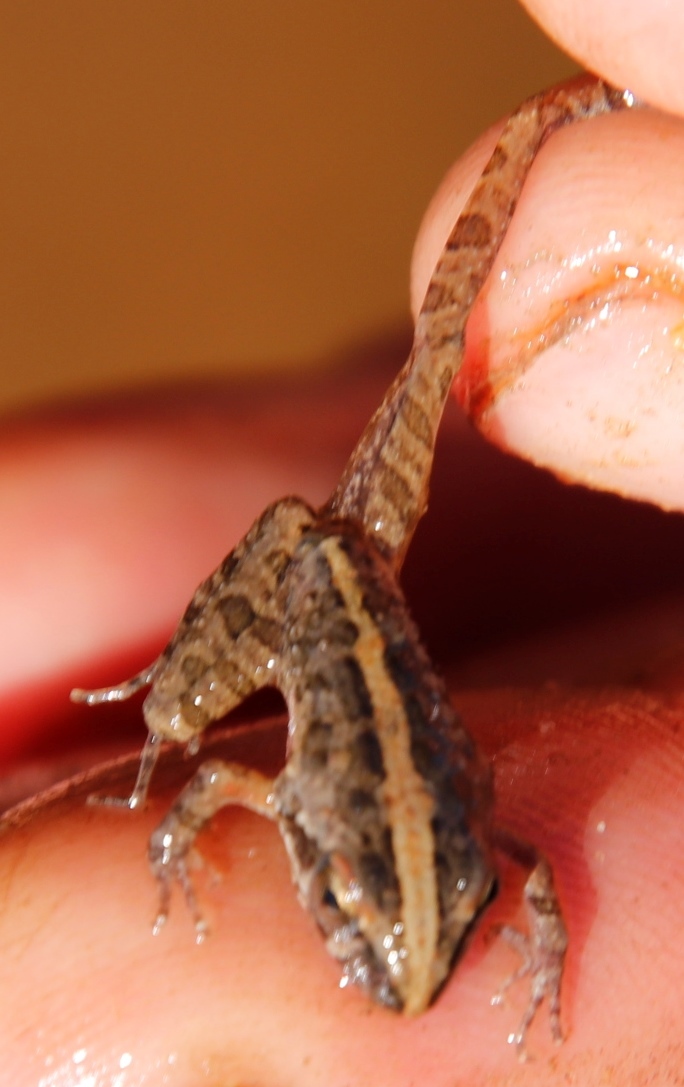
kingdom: Animalia
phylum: Chordata
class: Amphibia
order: Anura
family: Pyxicephalidae
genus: Strongylopus
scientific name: Strongylopus grayii
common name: Gray's stream frog
